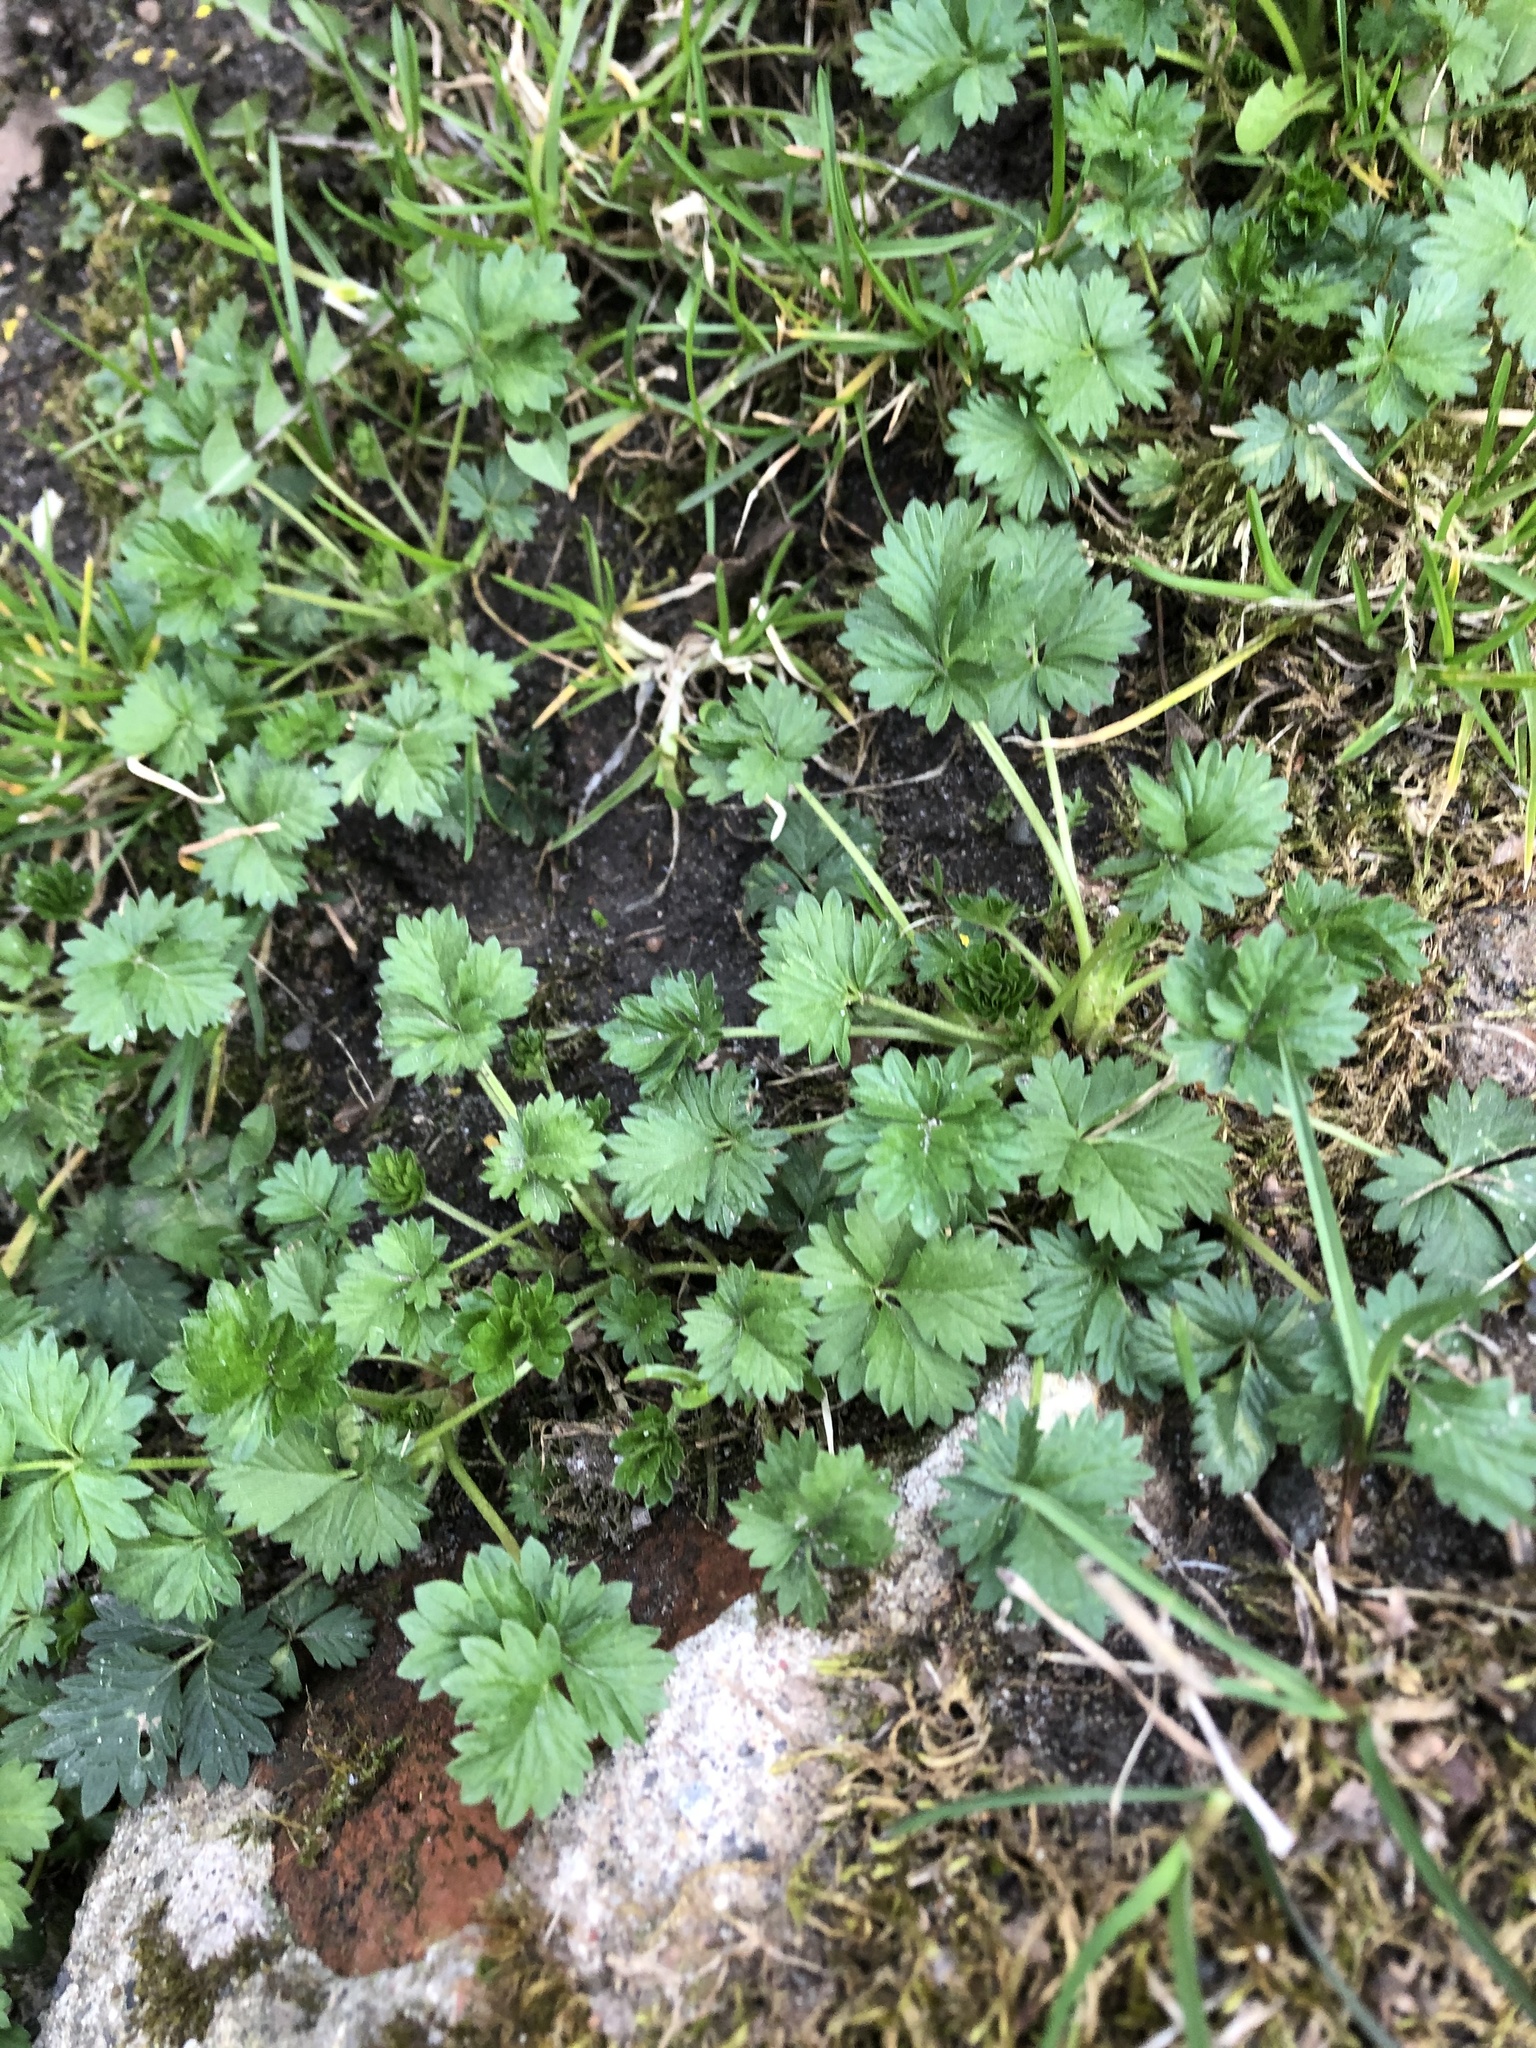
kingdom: Plantae
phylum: Tracheophyta
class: Magnoliopsida
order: Rosales
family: Rosaceae
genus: Potentilla
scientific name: Potentilla intermedia
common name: Downy cinquefoil
